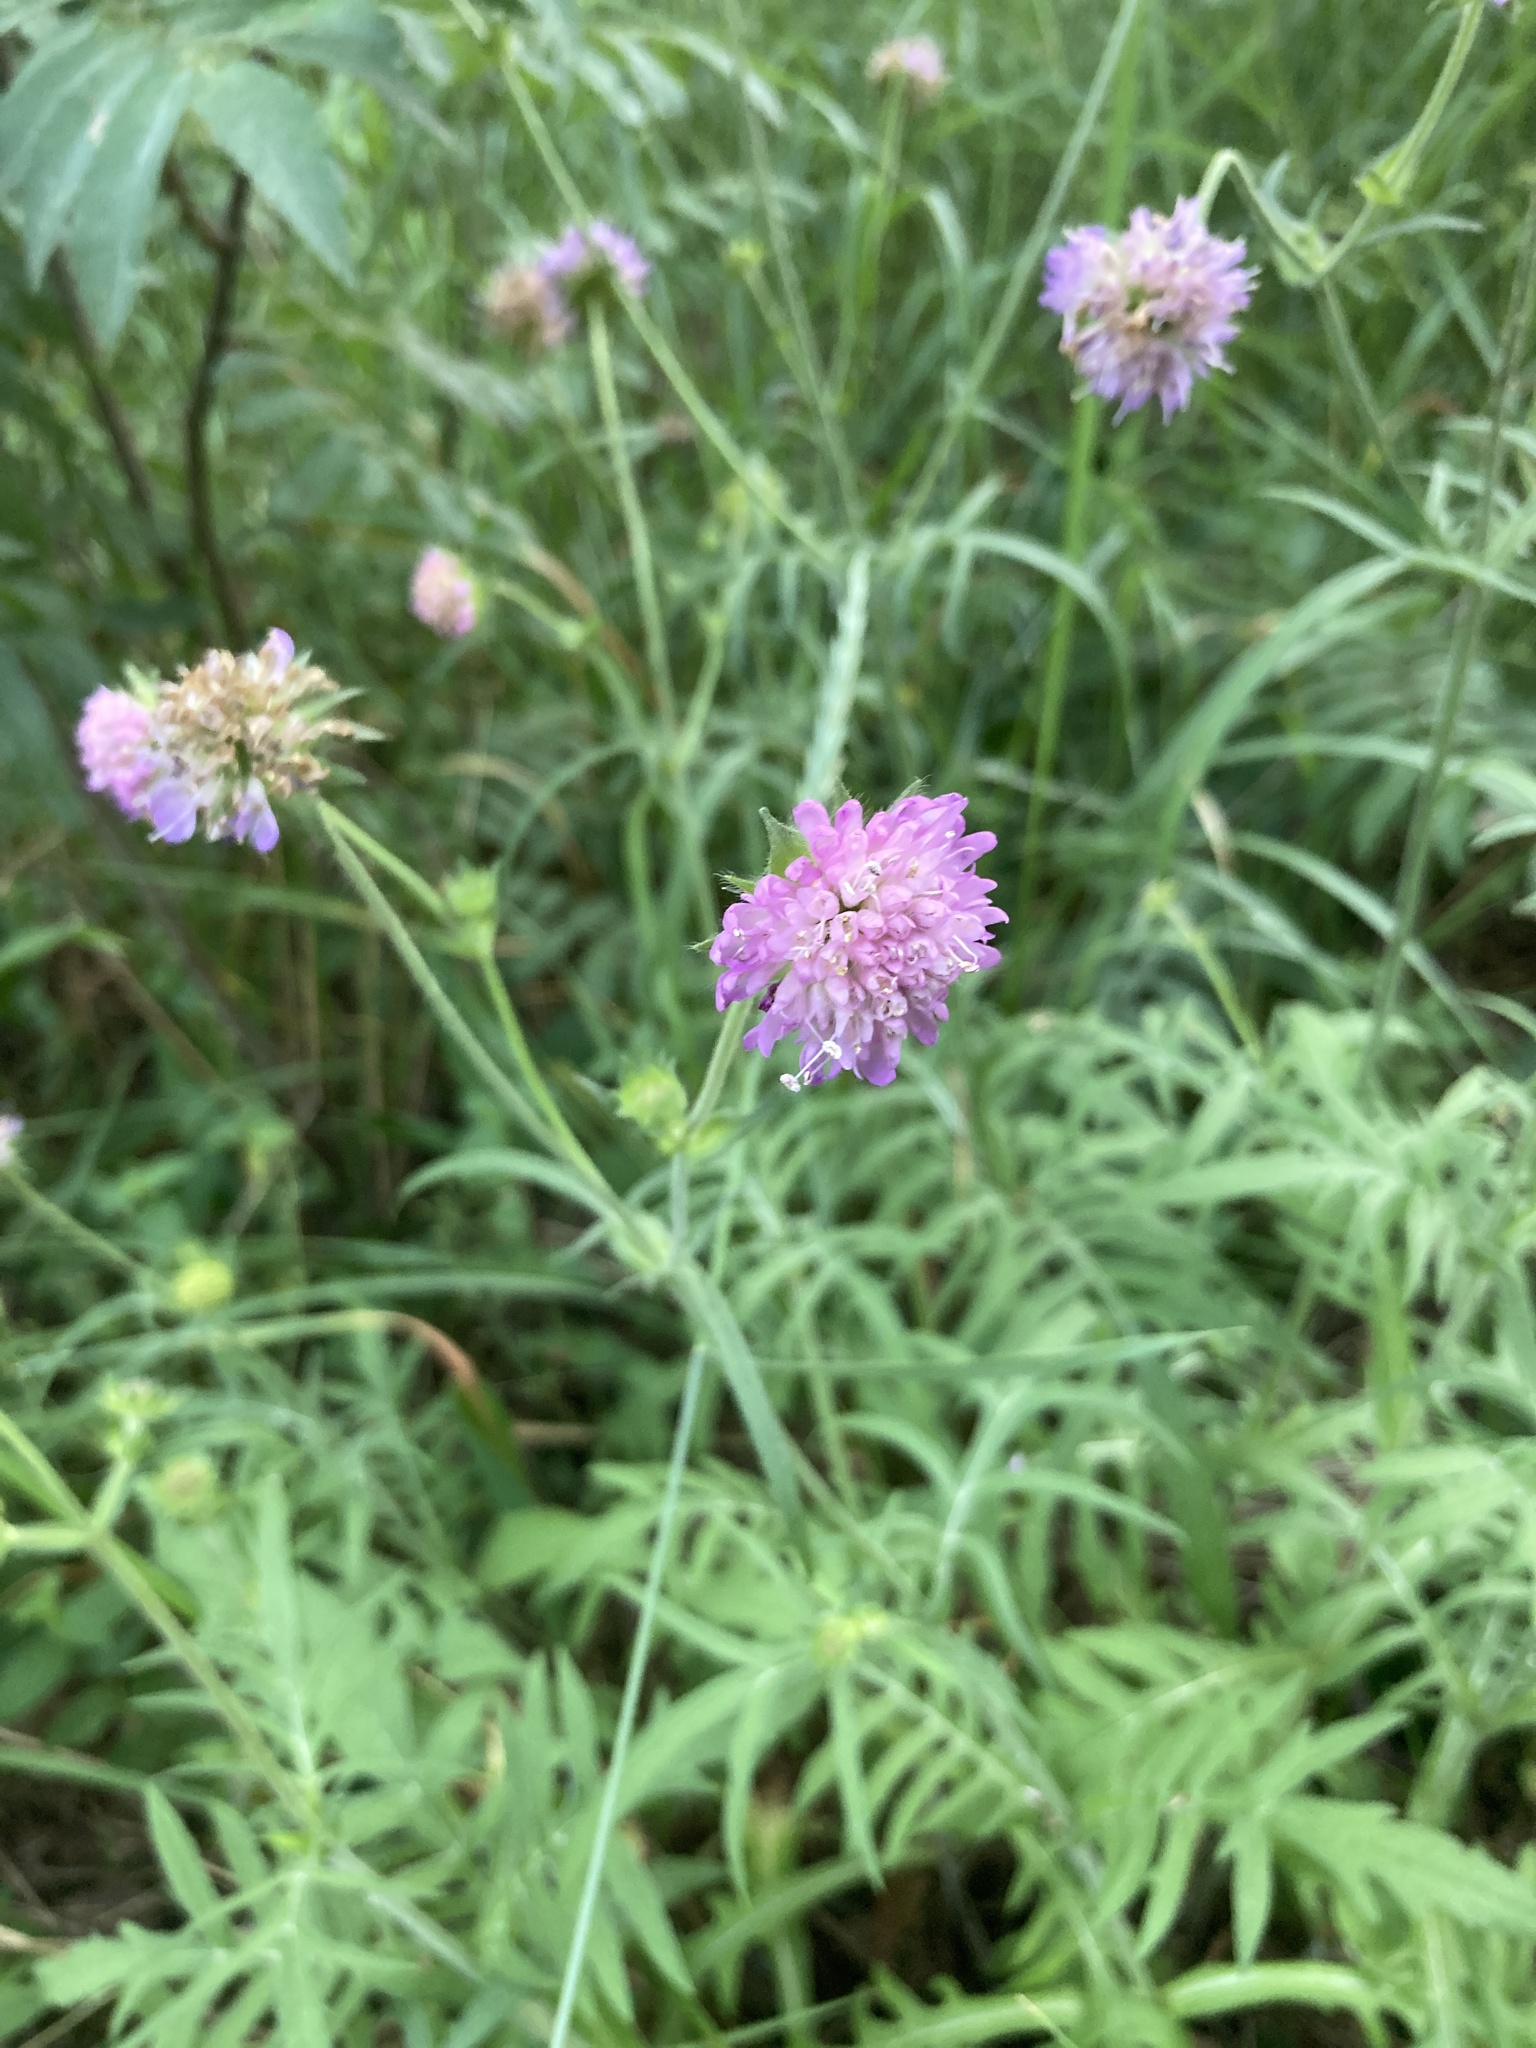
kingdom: Plantae
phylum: Tracheophyta
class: Magnoliopsida
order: Dipsacales
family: Caprifoliaceae
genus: Knautia
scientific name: Knautia arvensis
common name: Field scabiosa
